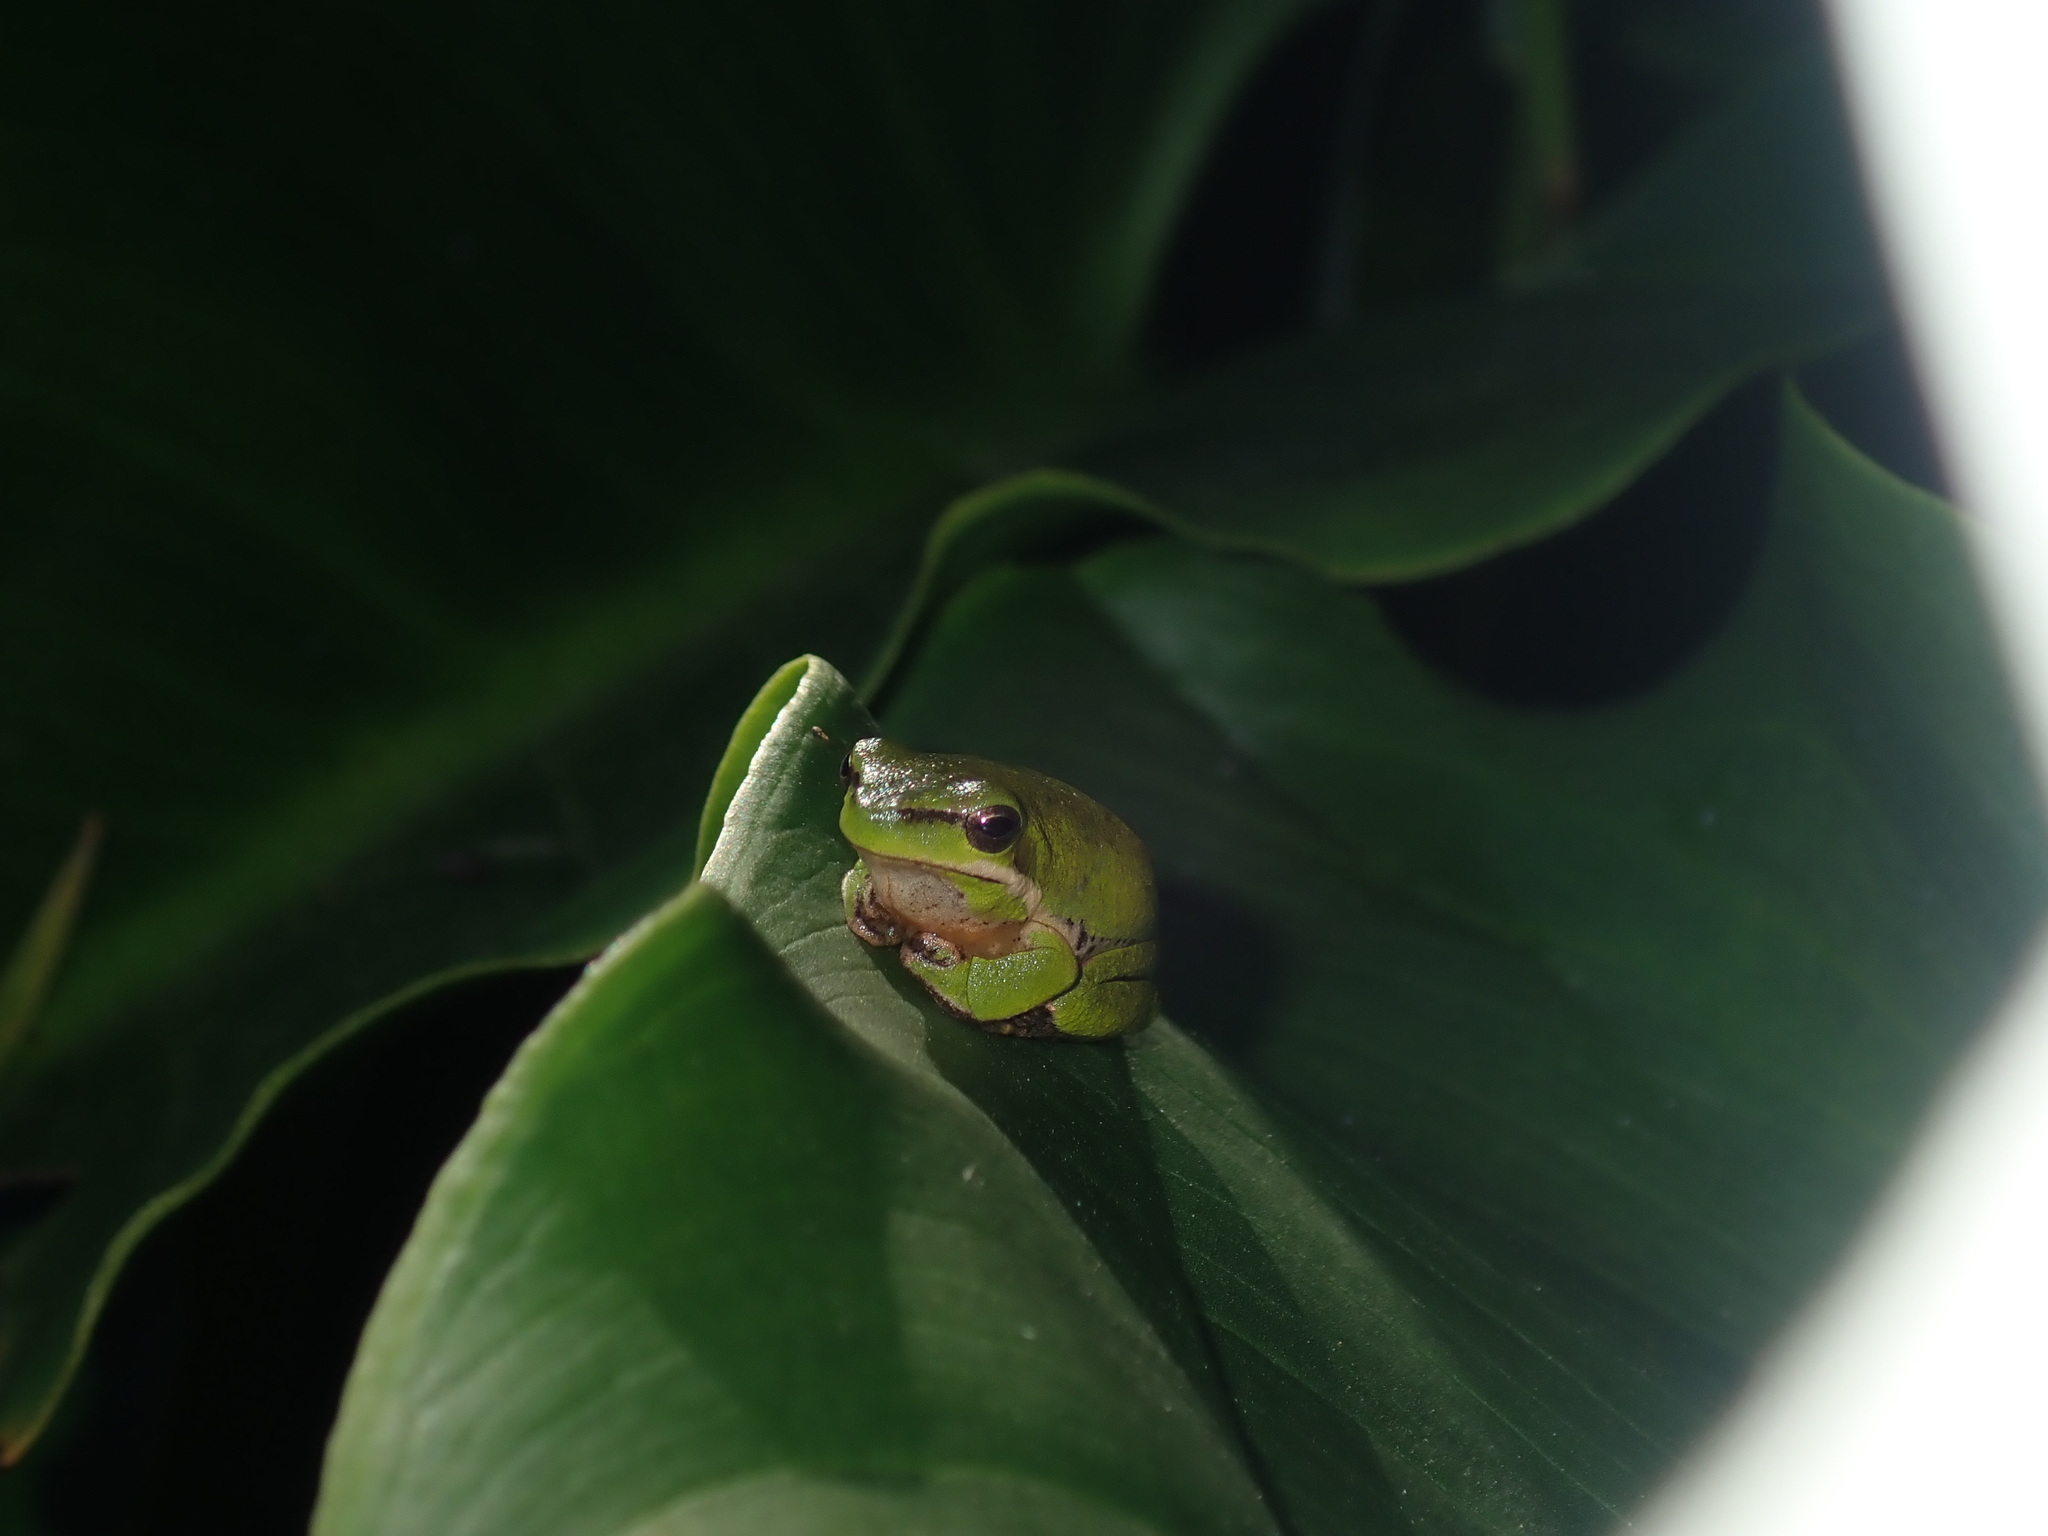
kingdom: Animalia
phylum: Chordata
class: Amphibia
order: Anura
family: Pelodryadidae
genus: Litoria
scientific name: Litoria fallax
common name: Eastern dwarf treefrog
